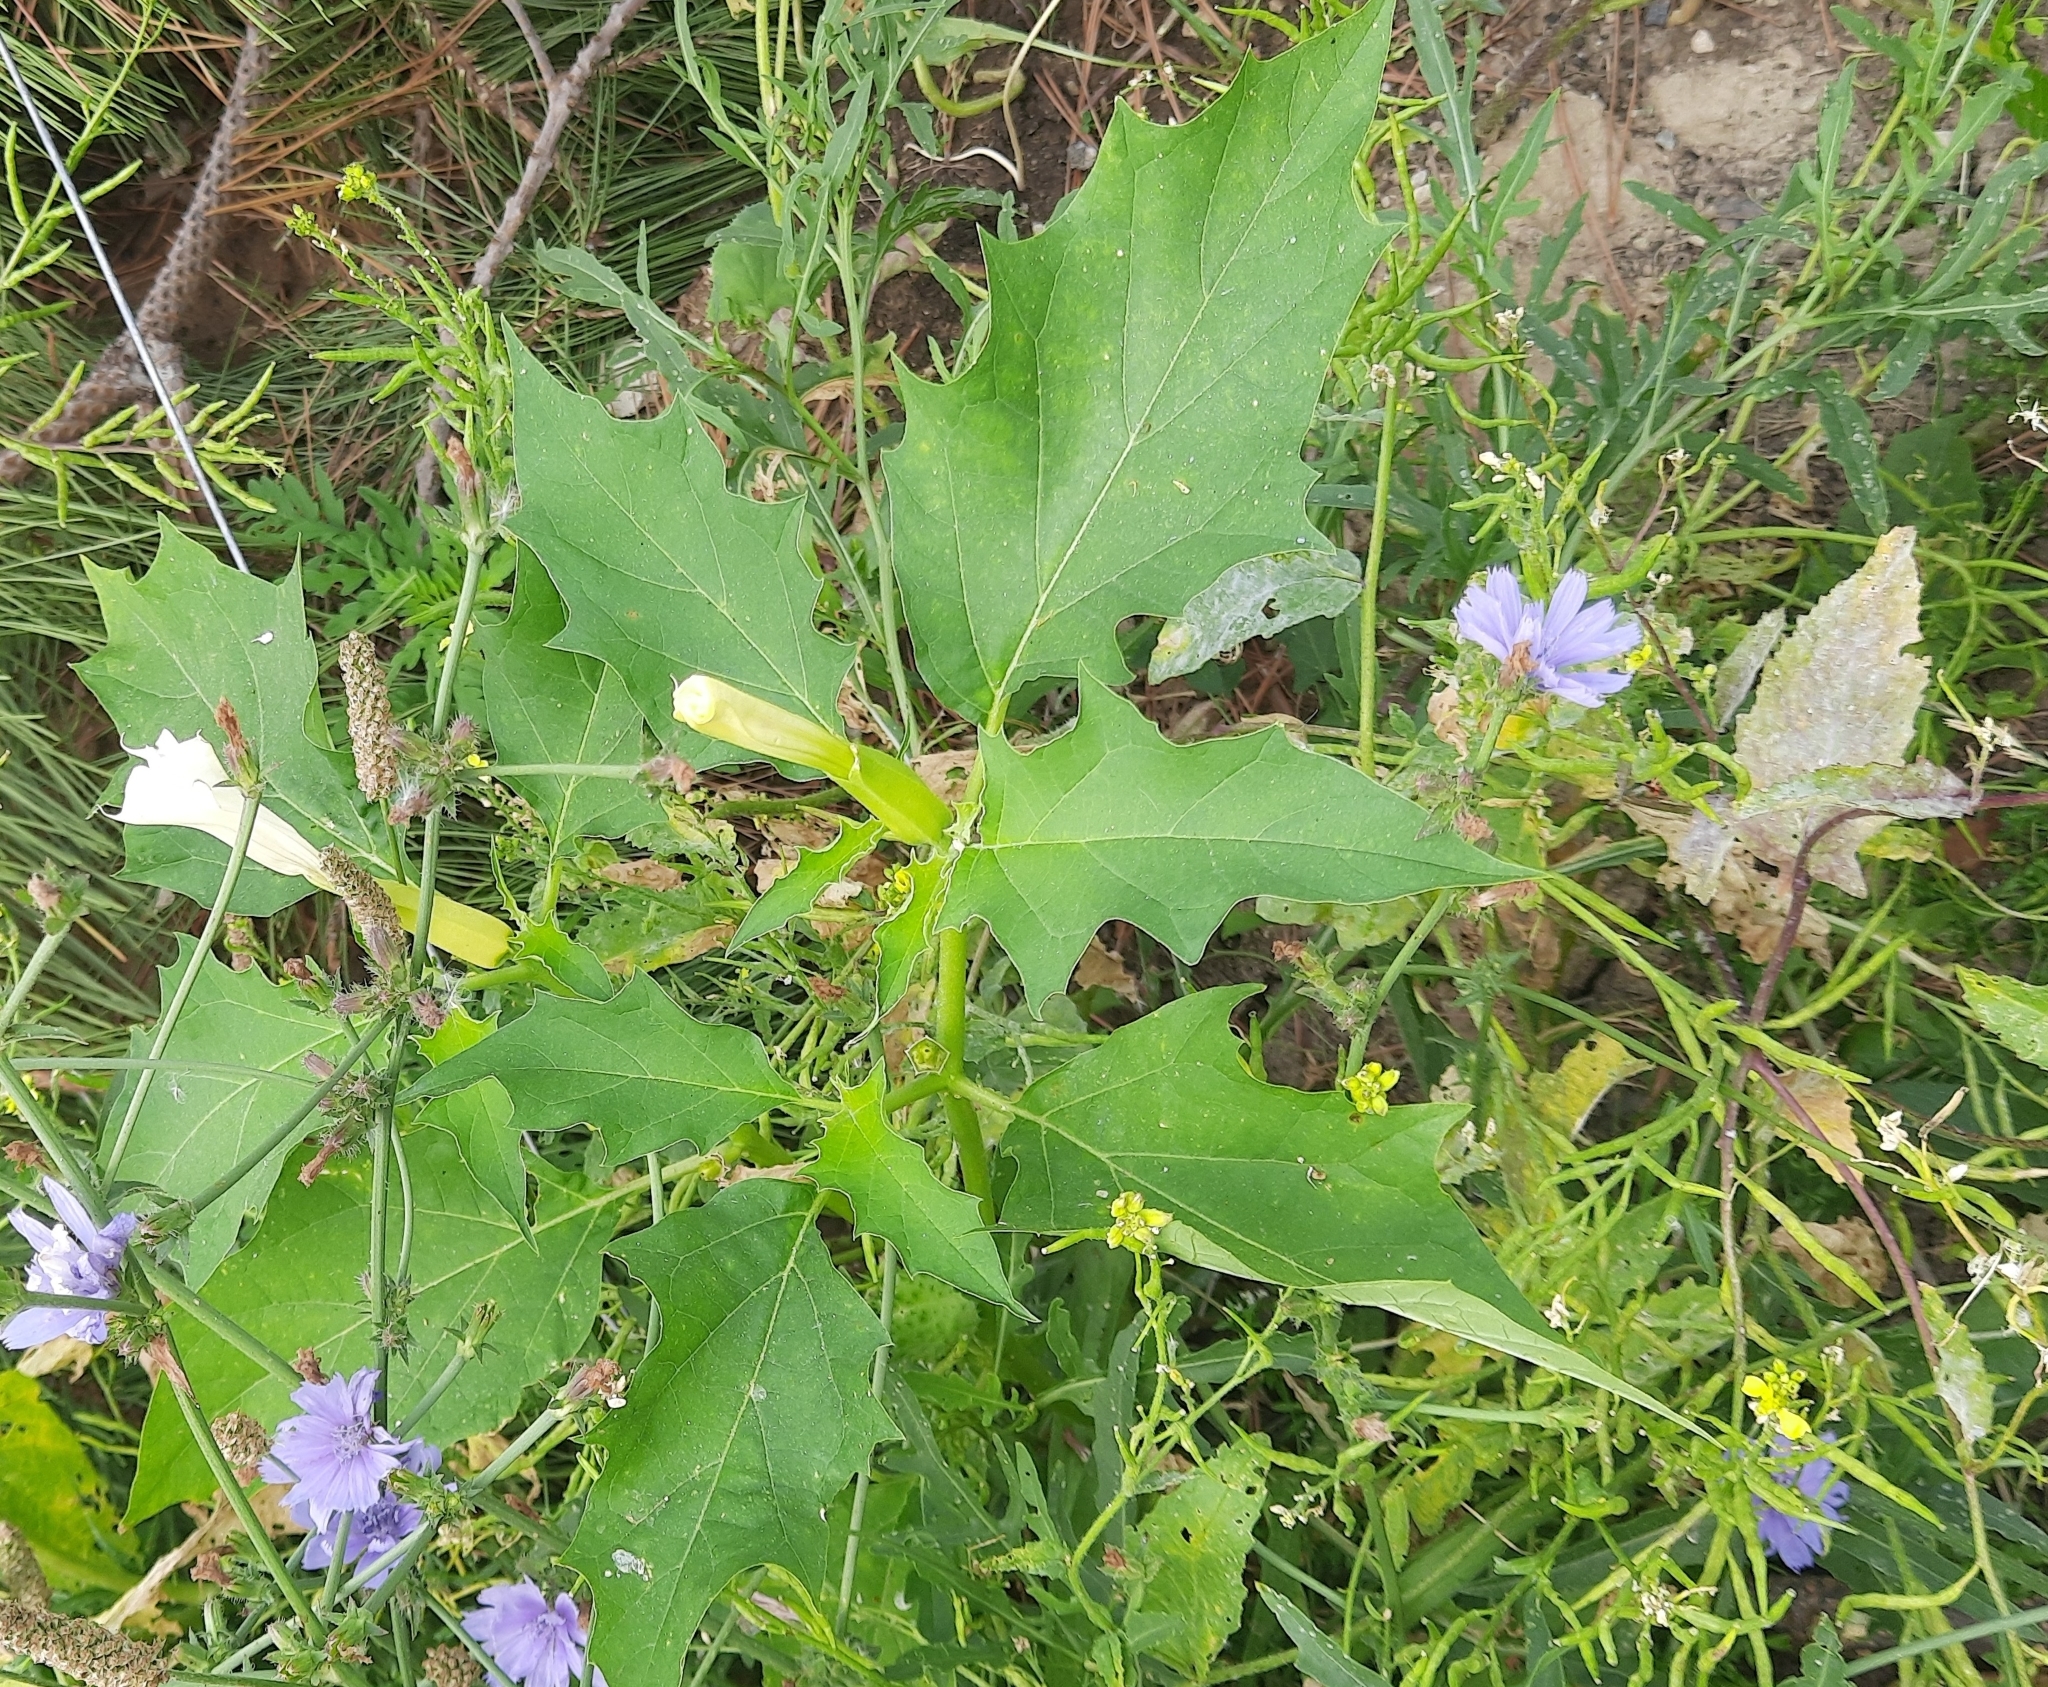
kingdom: Plantae
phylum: Tracheophyta
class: Magnoliopsida
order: Solanales
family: Solanaceae
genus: Datura
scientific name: Datura stramonium
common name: Thorn-apple
